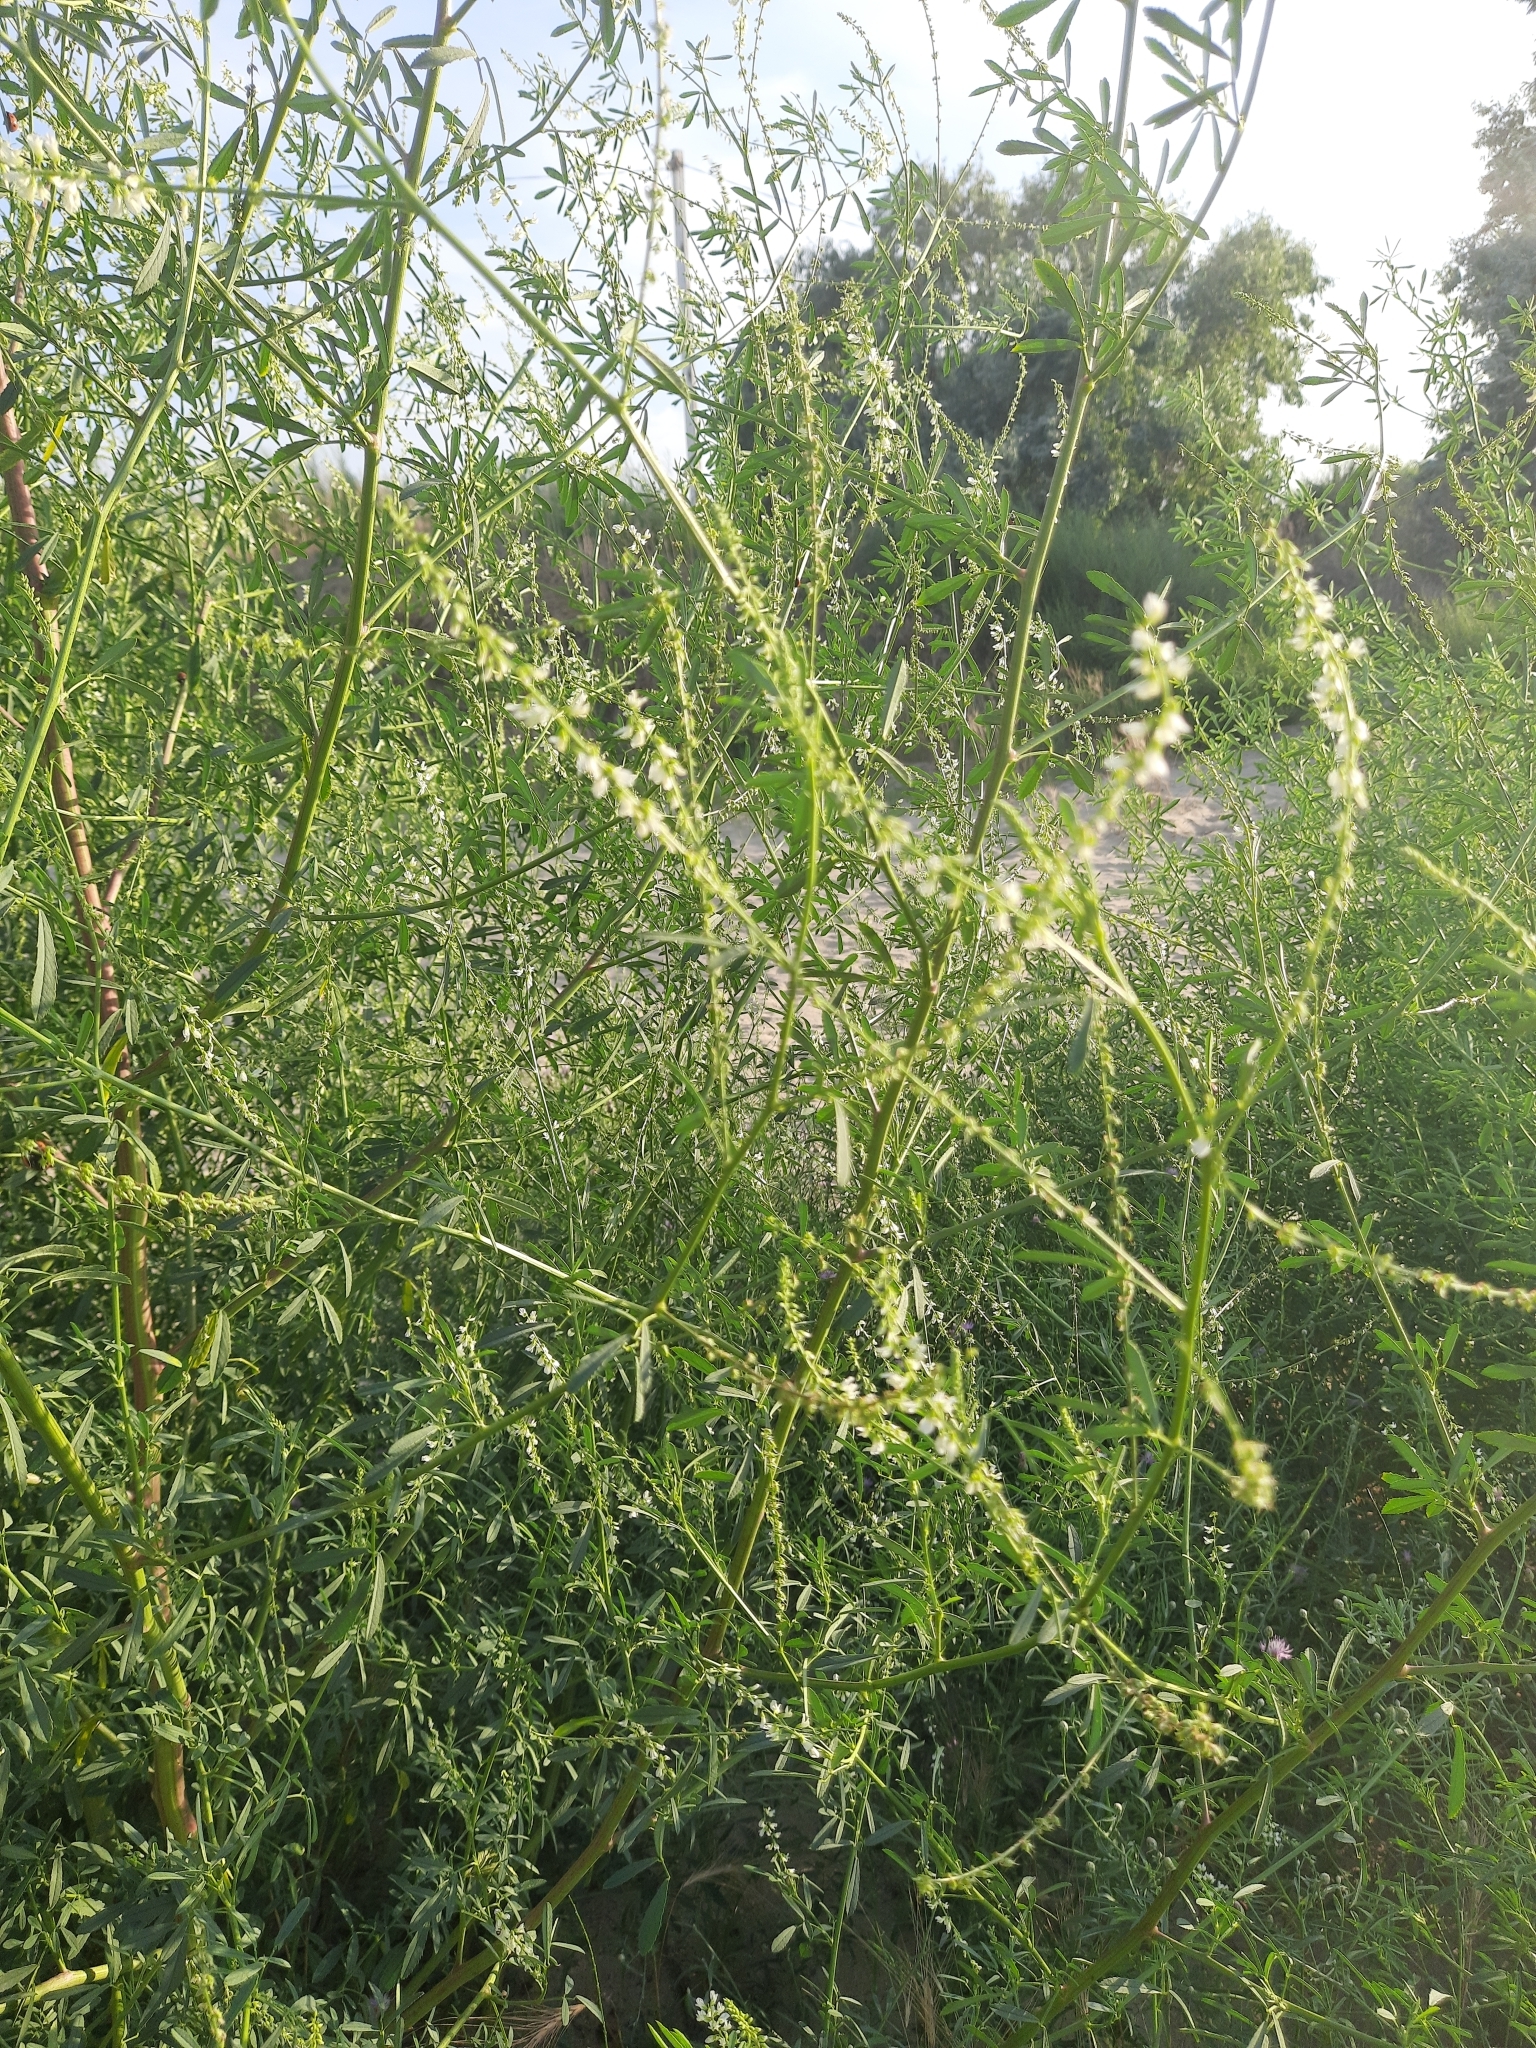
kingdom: Plantae
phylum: Tracheophyta
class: Magnoliopsida
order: Fabales
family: Fabaceae
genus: Melilotus
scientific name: Melilotus albus
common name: White melilot
